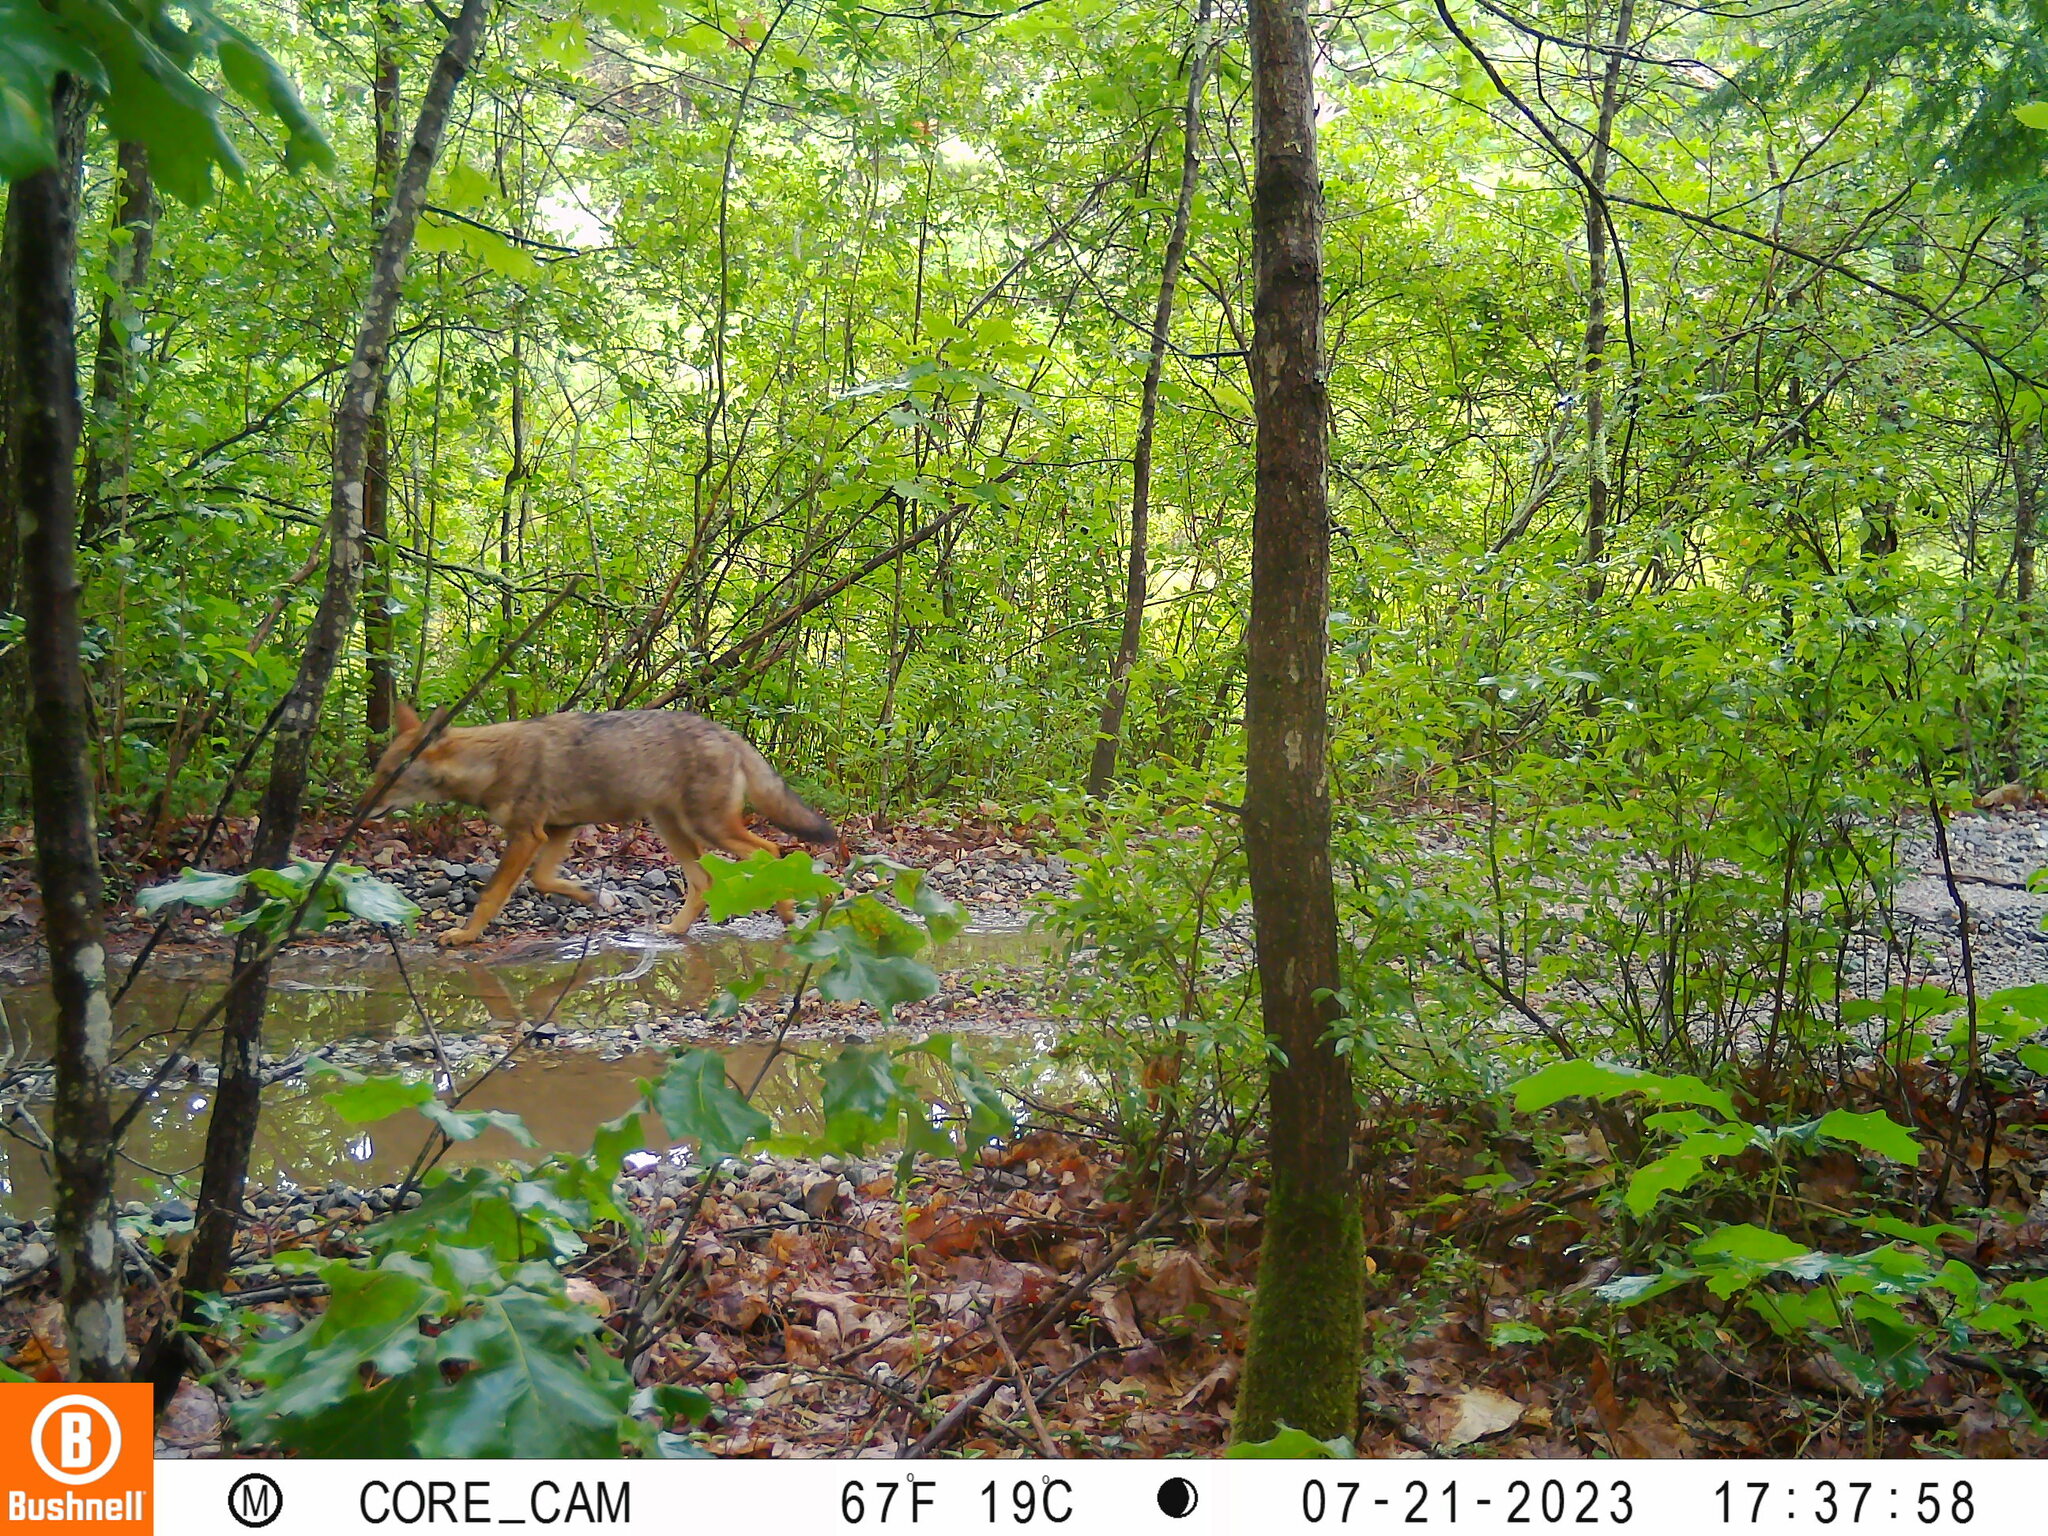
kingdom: Animalia
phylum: Chordata
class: Mammalia
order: Carnivora
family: Canidae
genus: Canis
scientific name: Canis latrans
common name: Coyote
